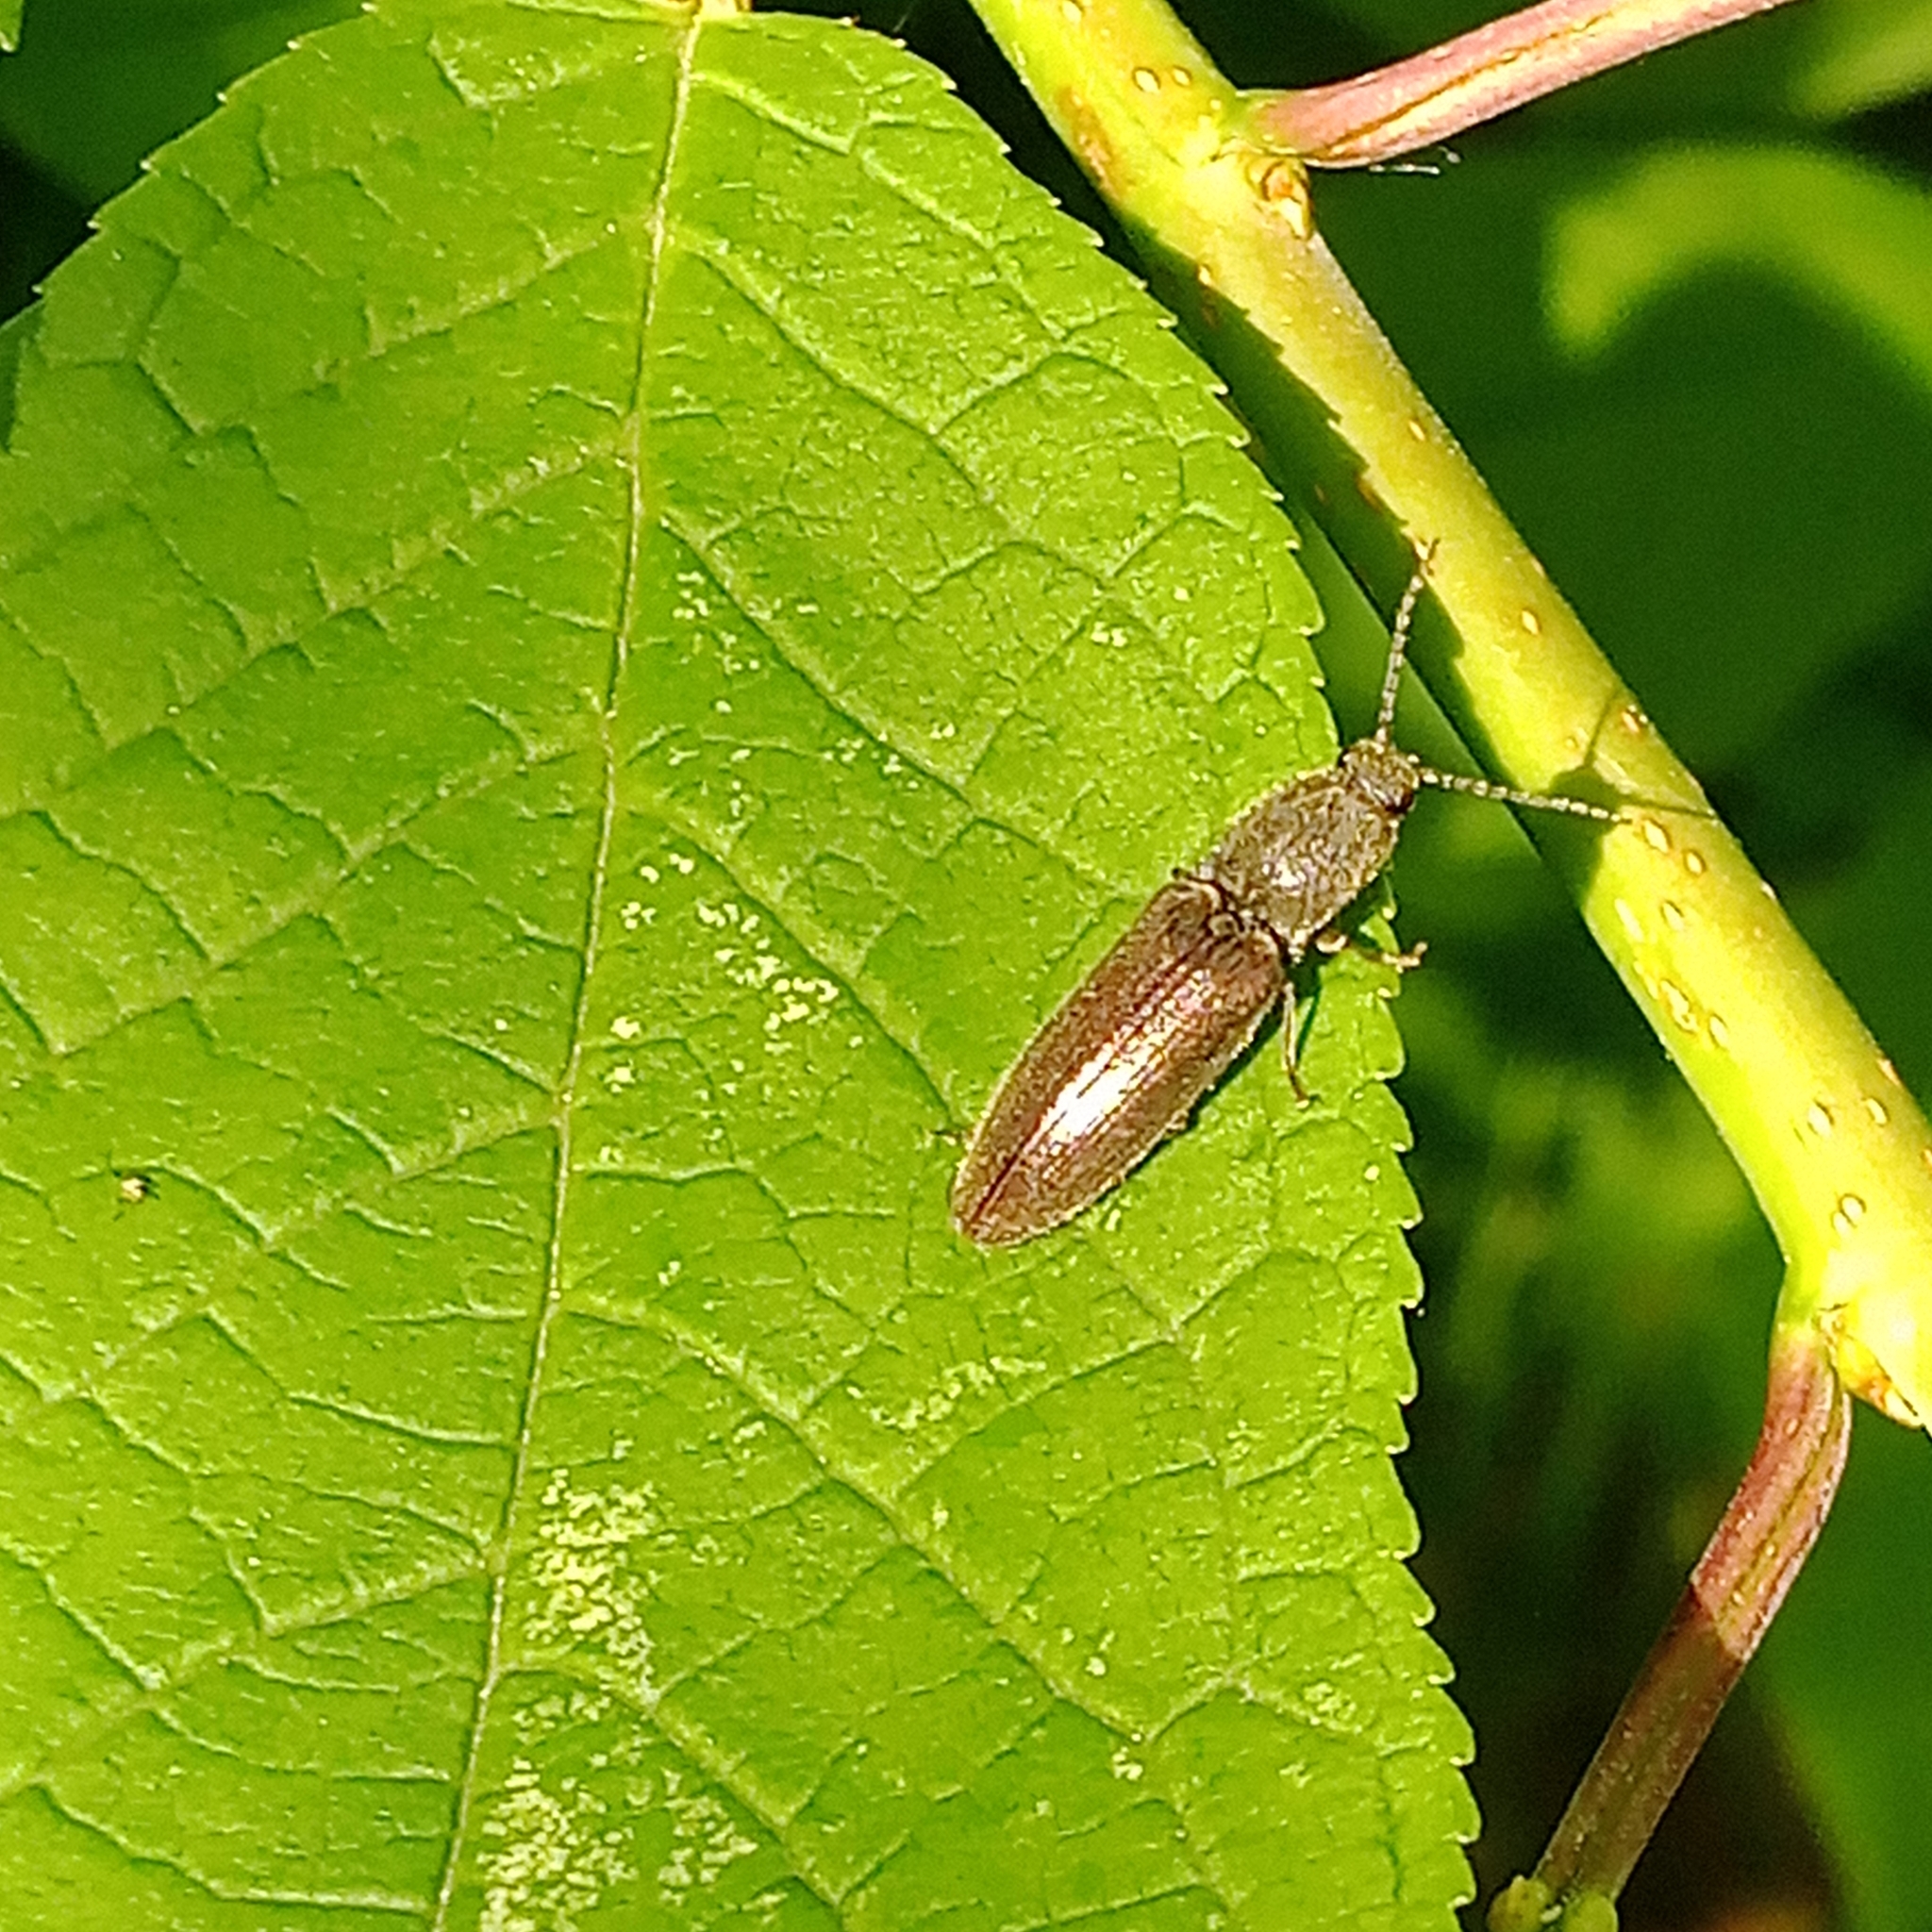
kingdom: Animalia
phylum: Arthropoda
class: Insecta
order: Coleoptera
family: Elateridae
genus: Athous
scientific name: Athous haemorrhoidalis
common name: Red-brown click beetle
